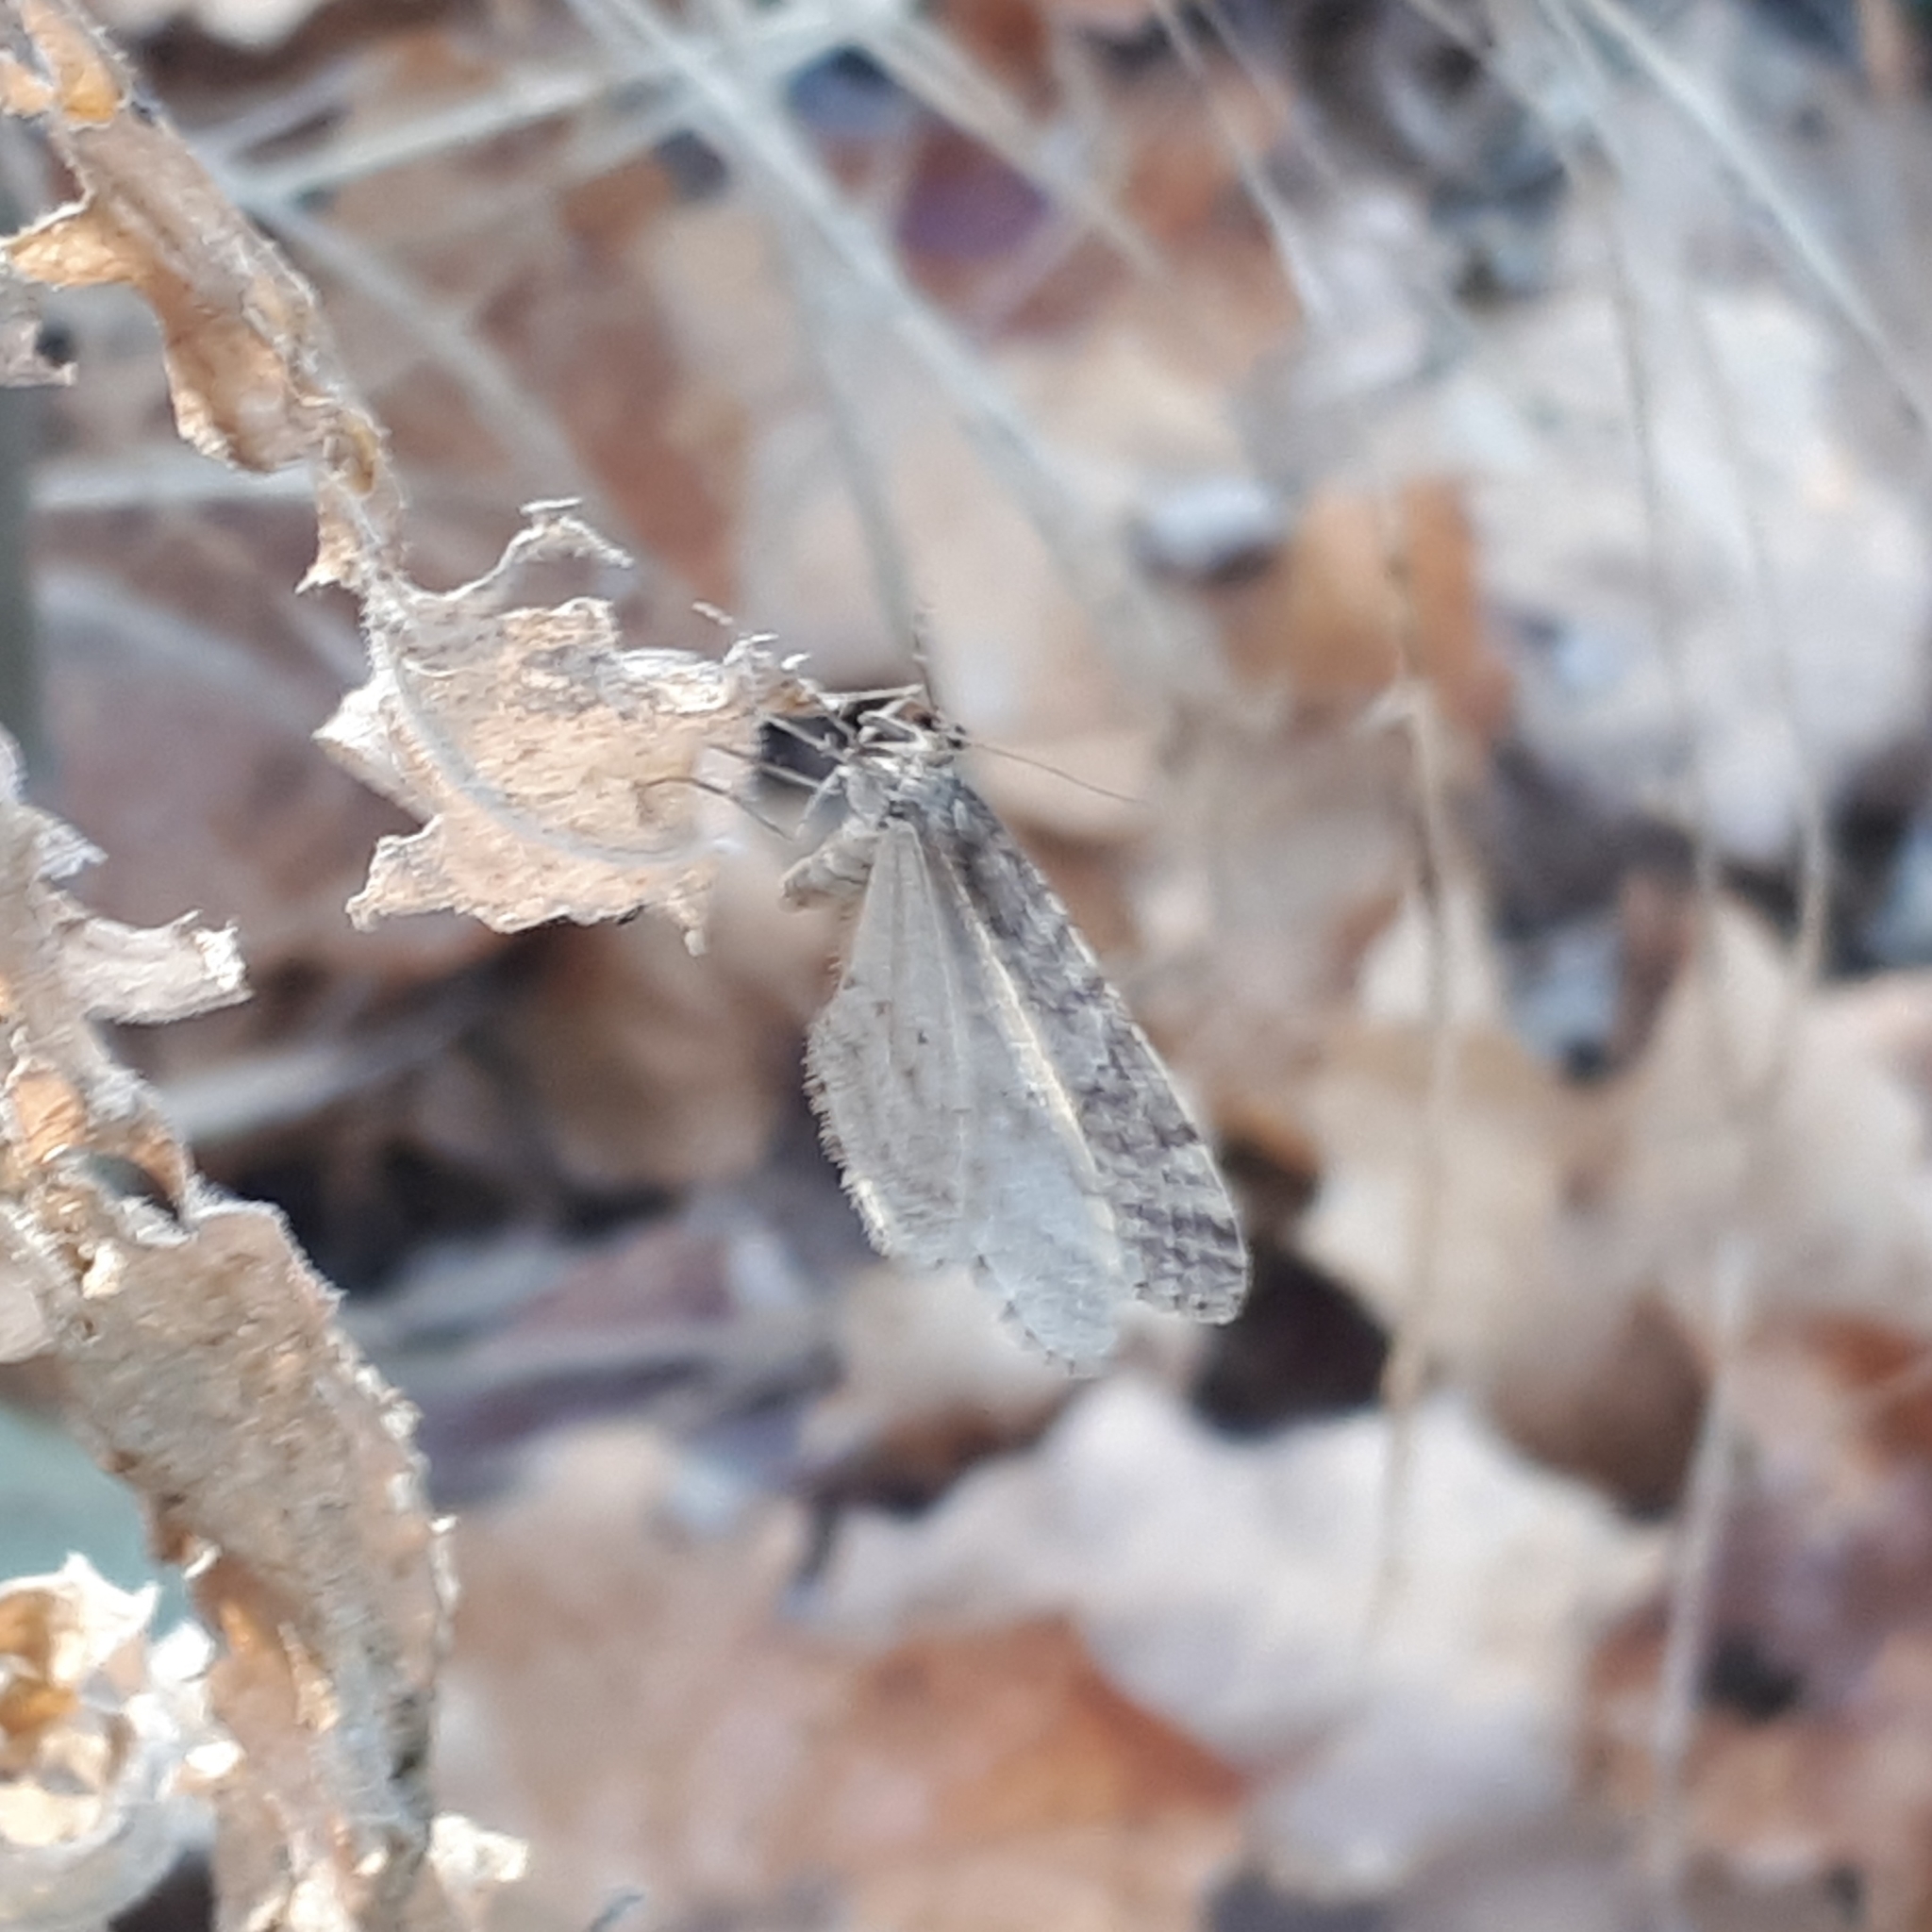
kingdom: Animalia
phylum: Arthropoda
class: Insecta
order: Lepidoptera
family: Geometridae
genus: Operophtera
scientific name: Operophtera bruceata
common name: Bruce spanworm
